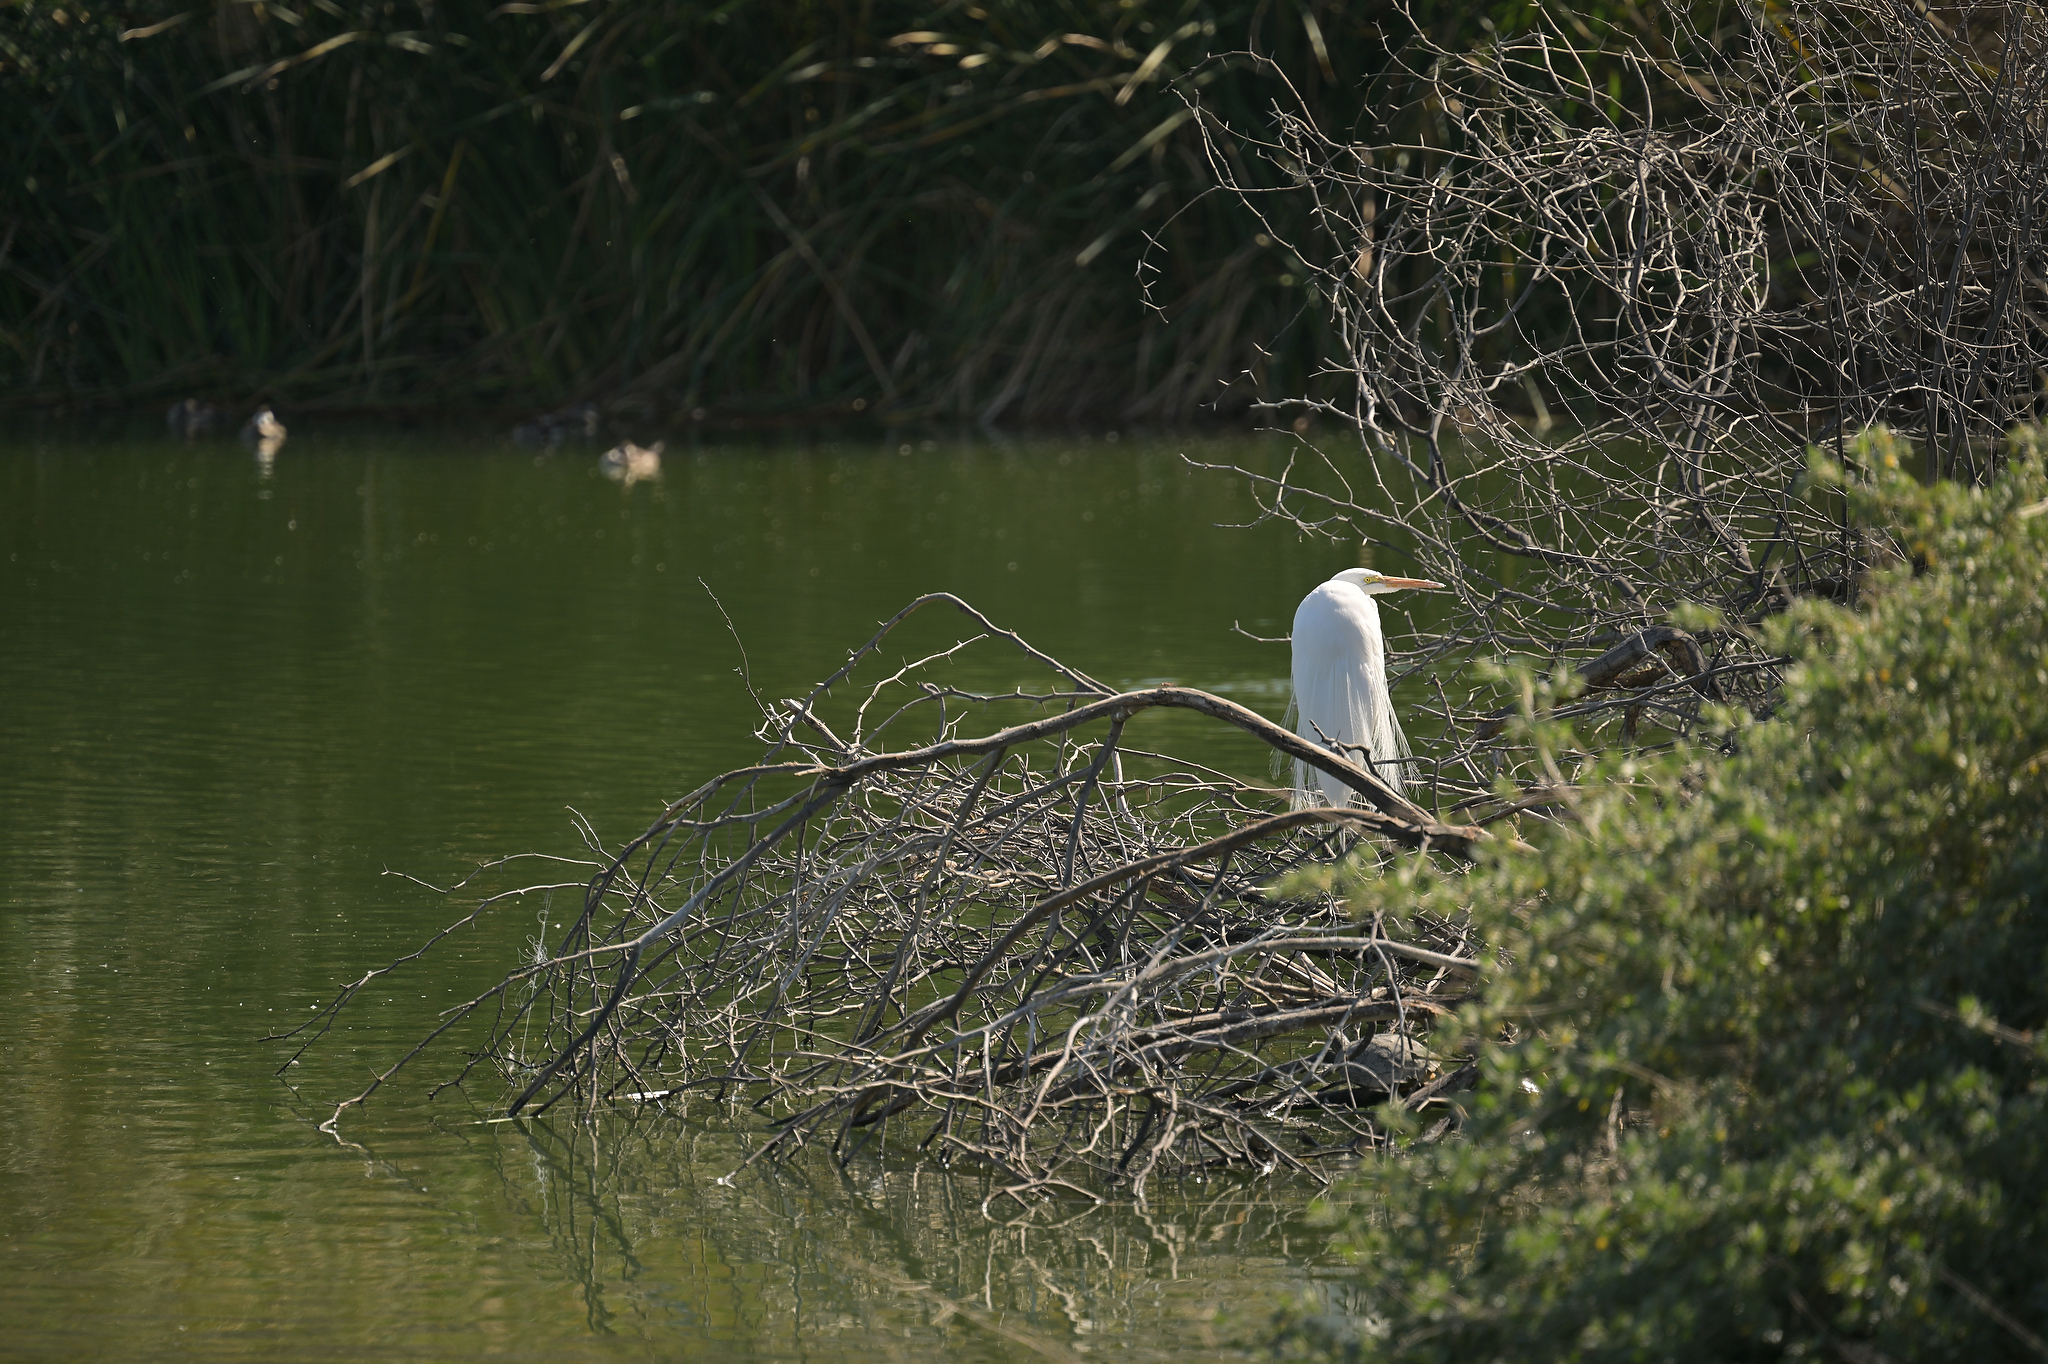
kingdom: Animalia
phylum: Chordata
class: Aves
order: Pelecaniformes
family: Ardeidae
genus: Ardea
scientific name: Ardea alba
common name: Great egret
